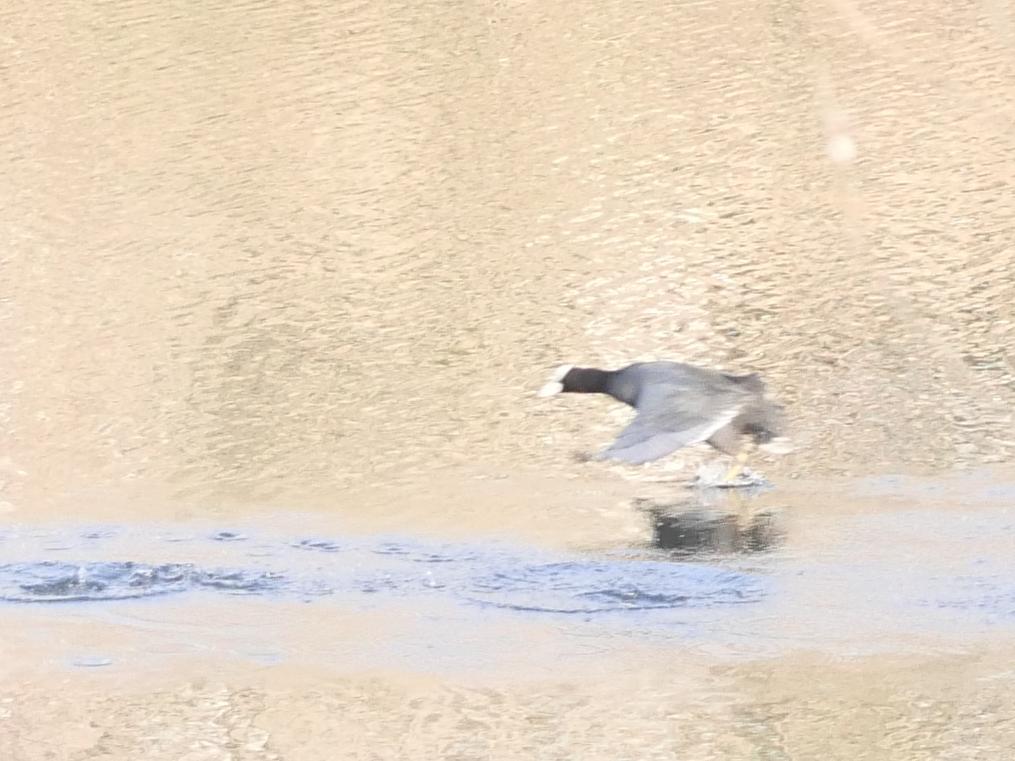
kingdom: Animalia
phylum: Chordata
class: Aves
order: Gruiformes
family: Rallidae
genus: Fulica
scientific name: Fulica atra
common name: Eurasian coot
